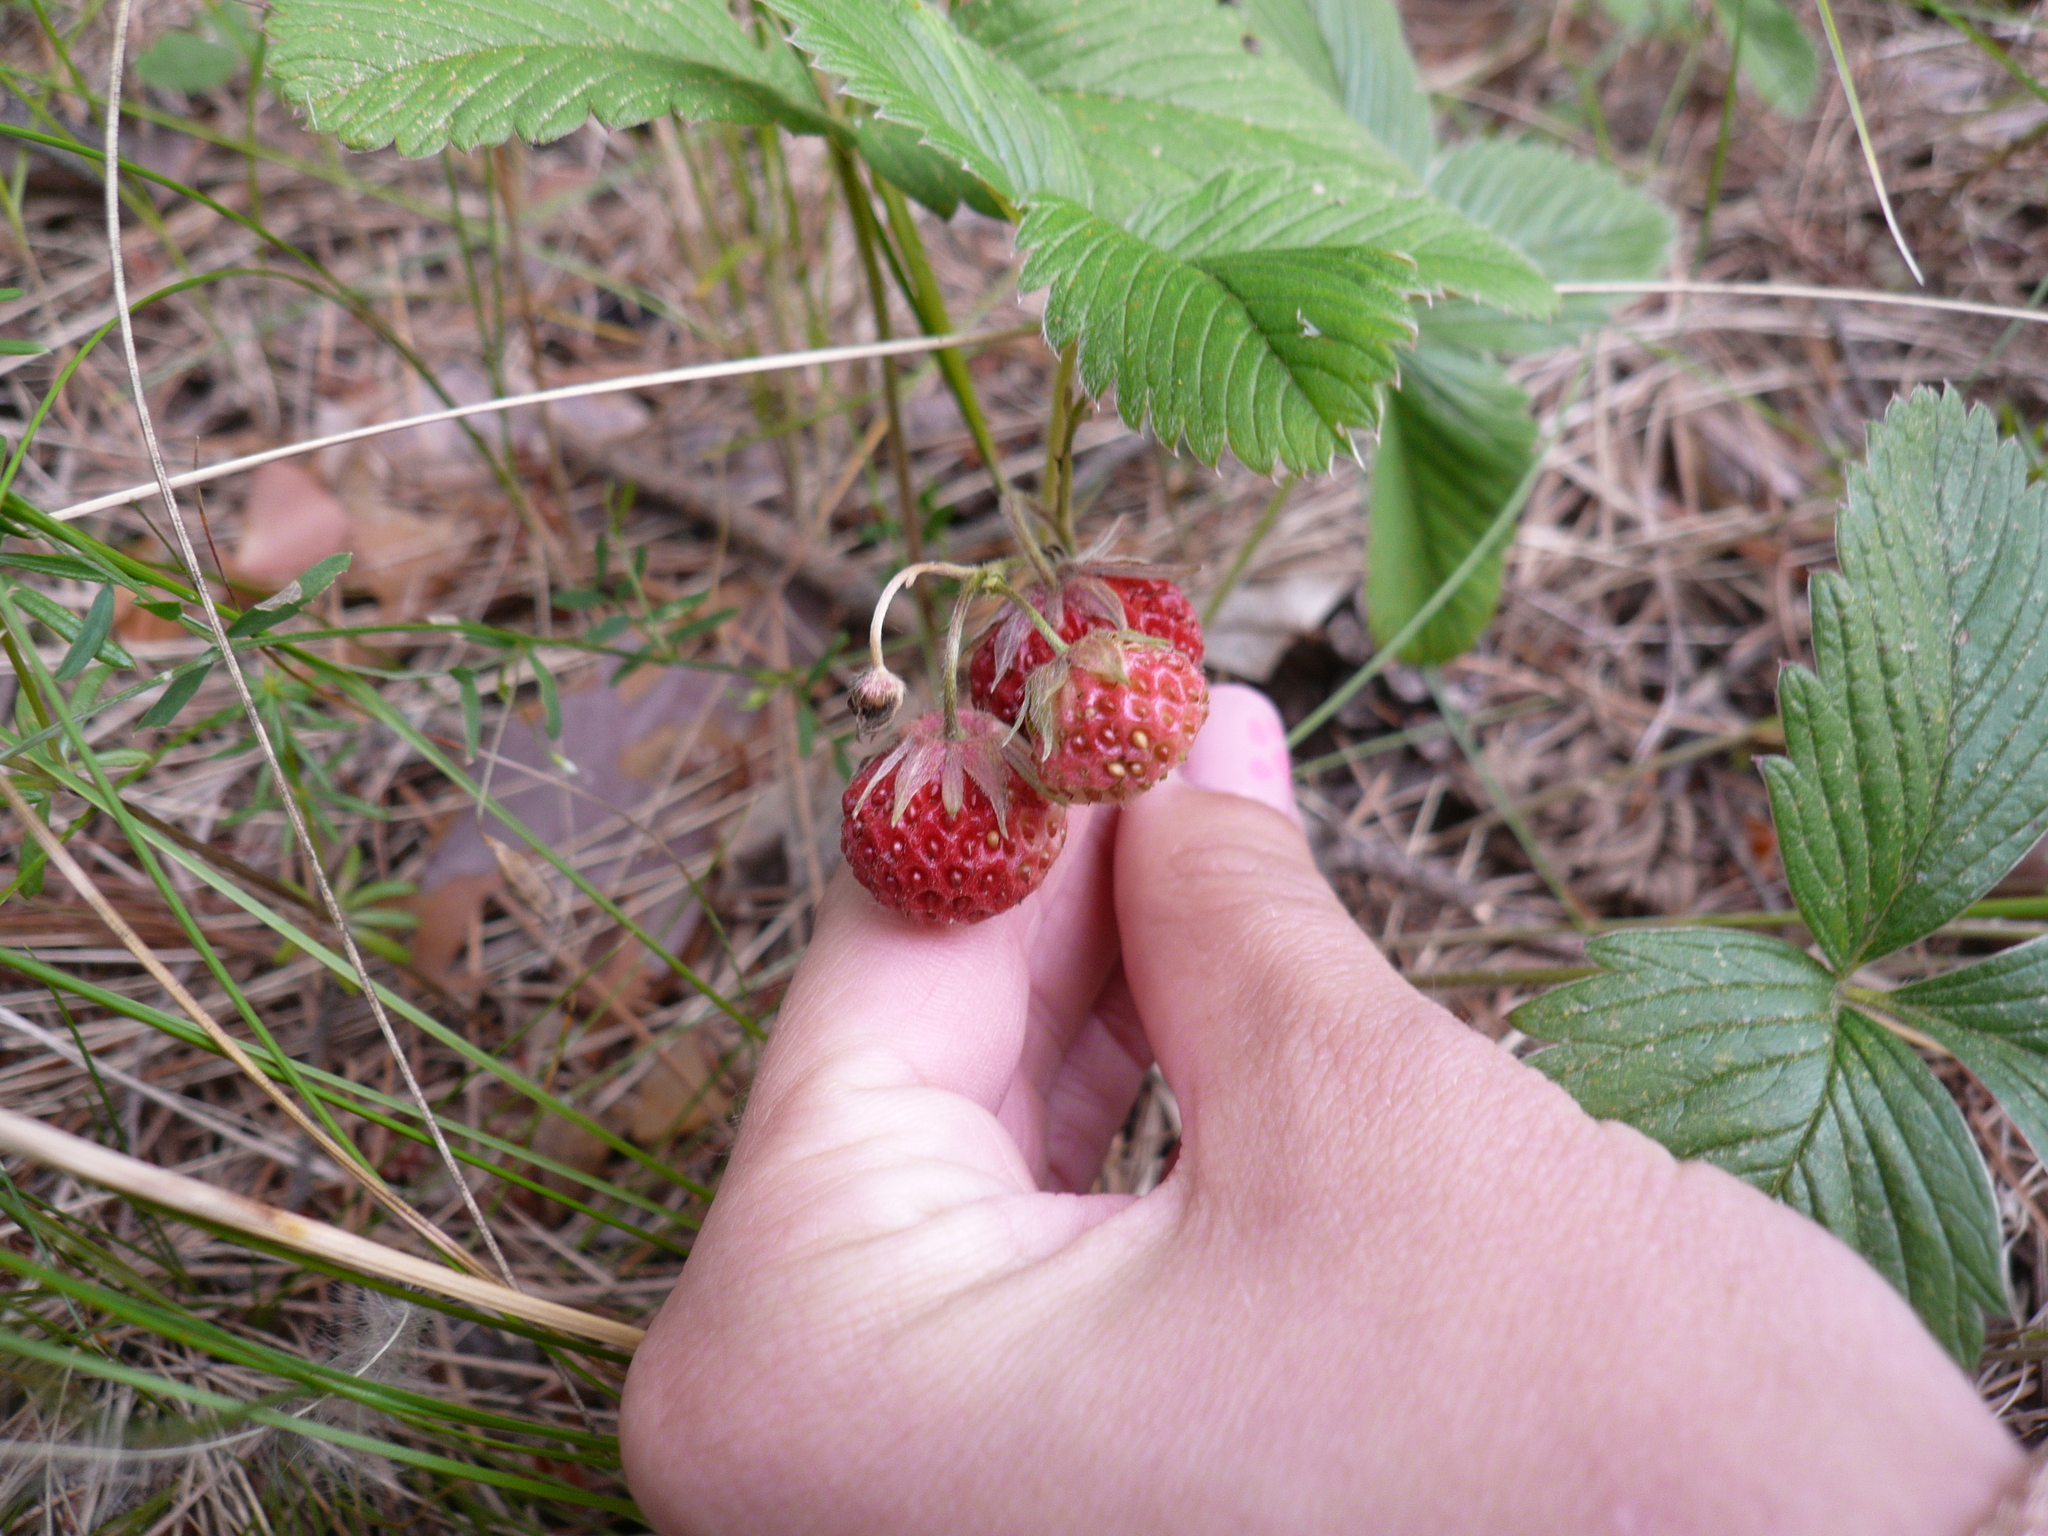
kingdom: Plantae
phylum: Tracheophyta
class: Magnoliopsida
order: Rosales
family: Rosaceae
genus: Fragaria
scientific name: Fragaria viridis
